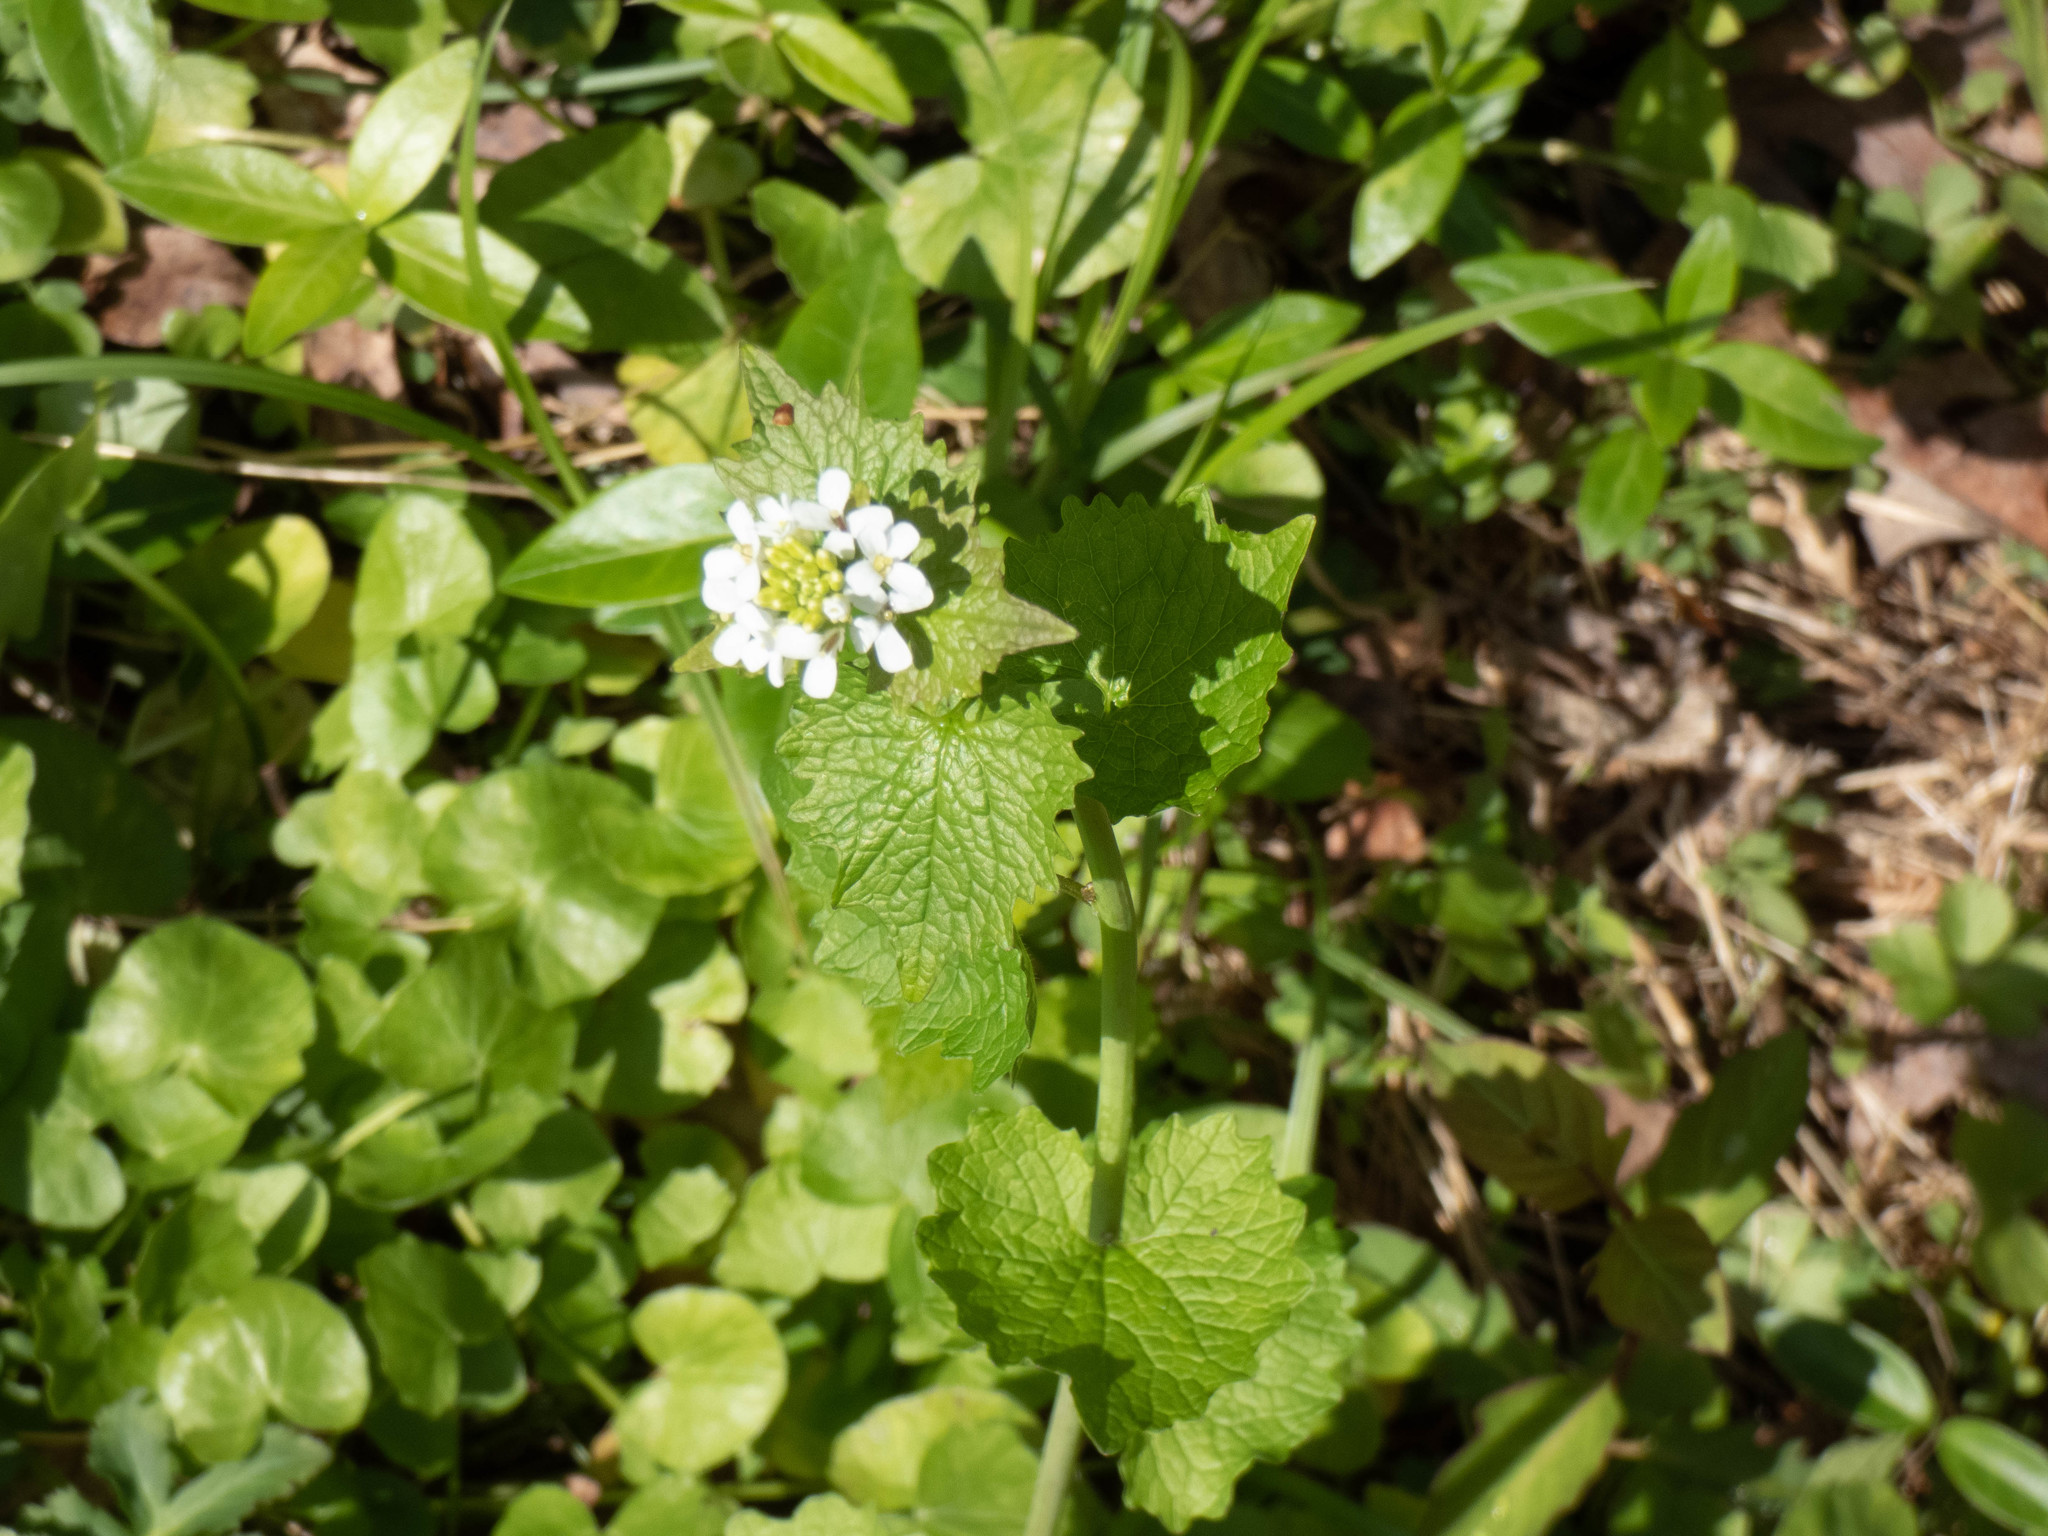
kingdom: Plantae
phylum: Tracheophyta
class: Magnoliopsida
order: Brassicales
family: Brassicaceae
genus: Alliaria
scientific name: Alliaria petiolata
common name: Garlic mustard
